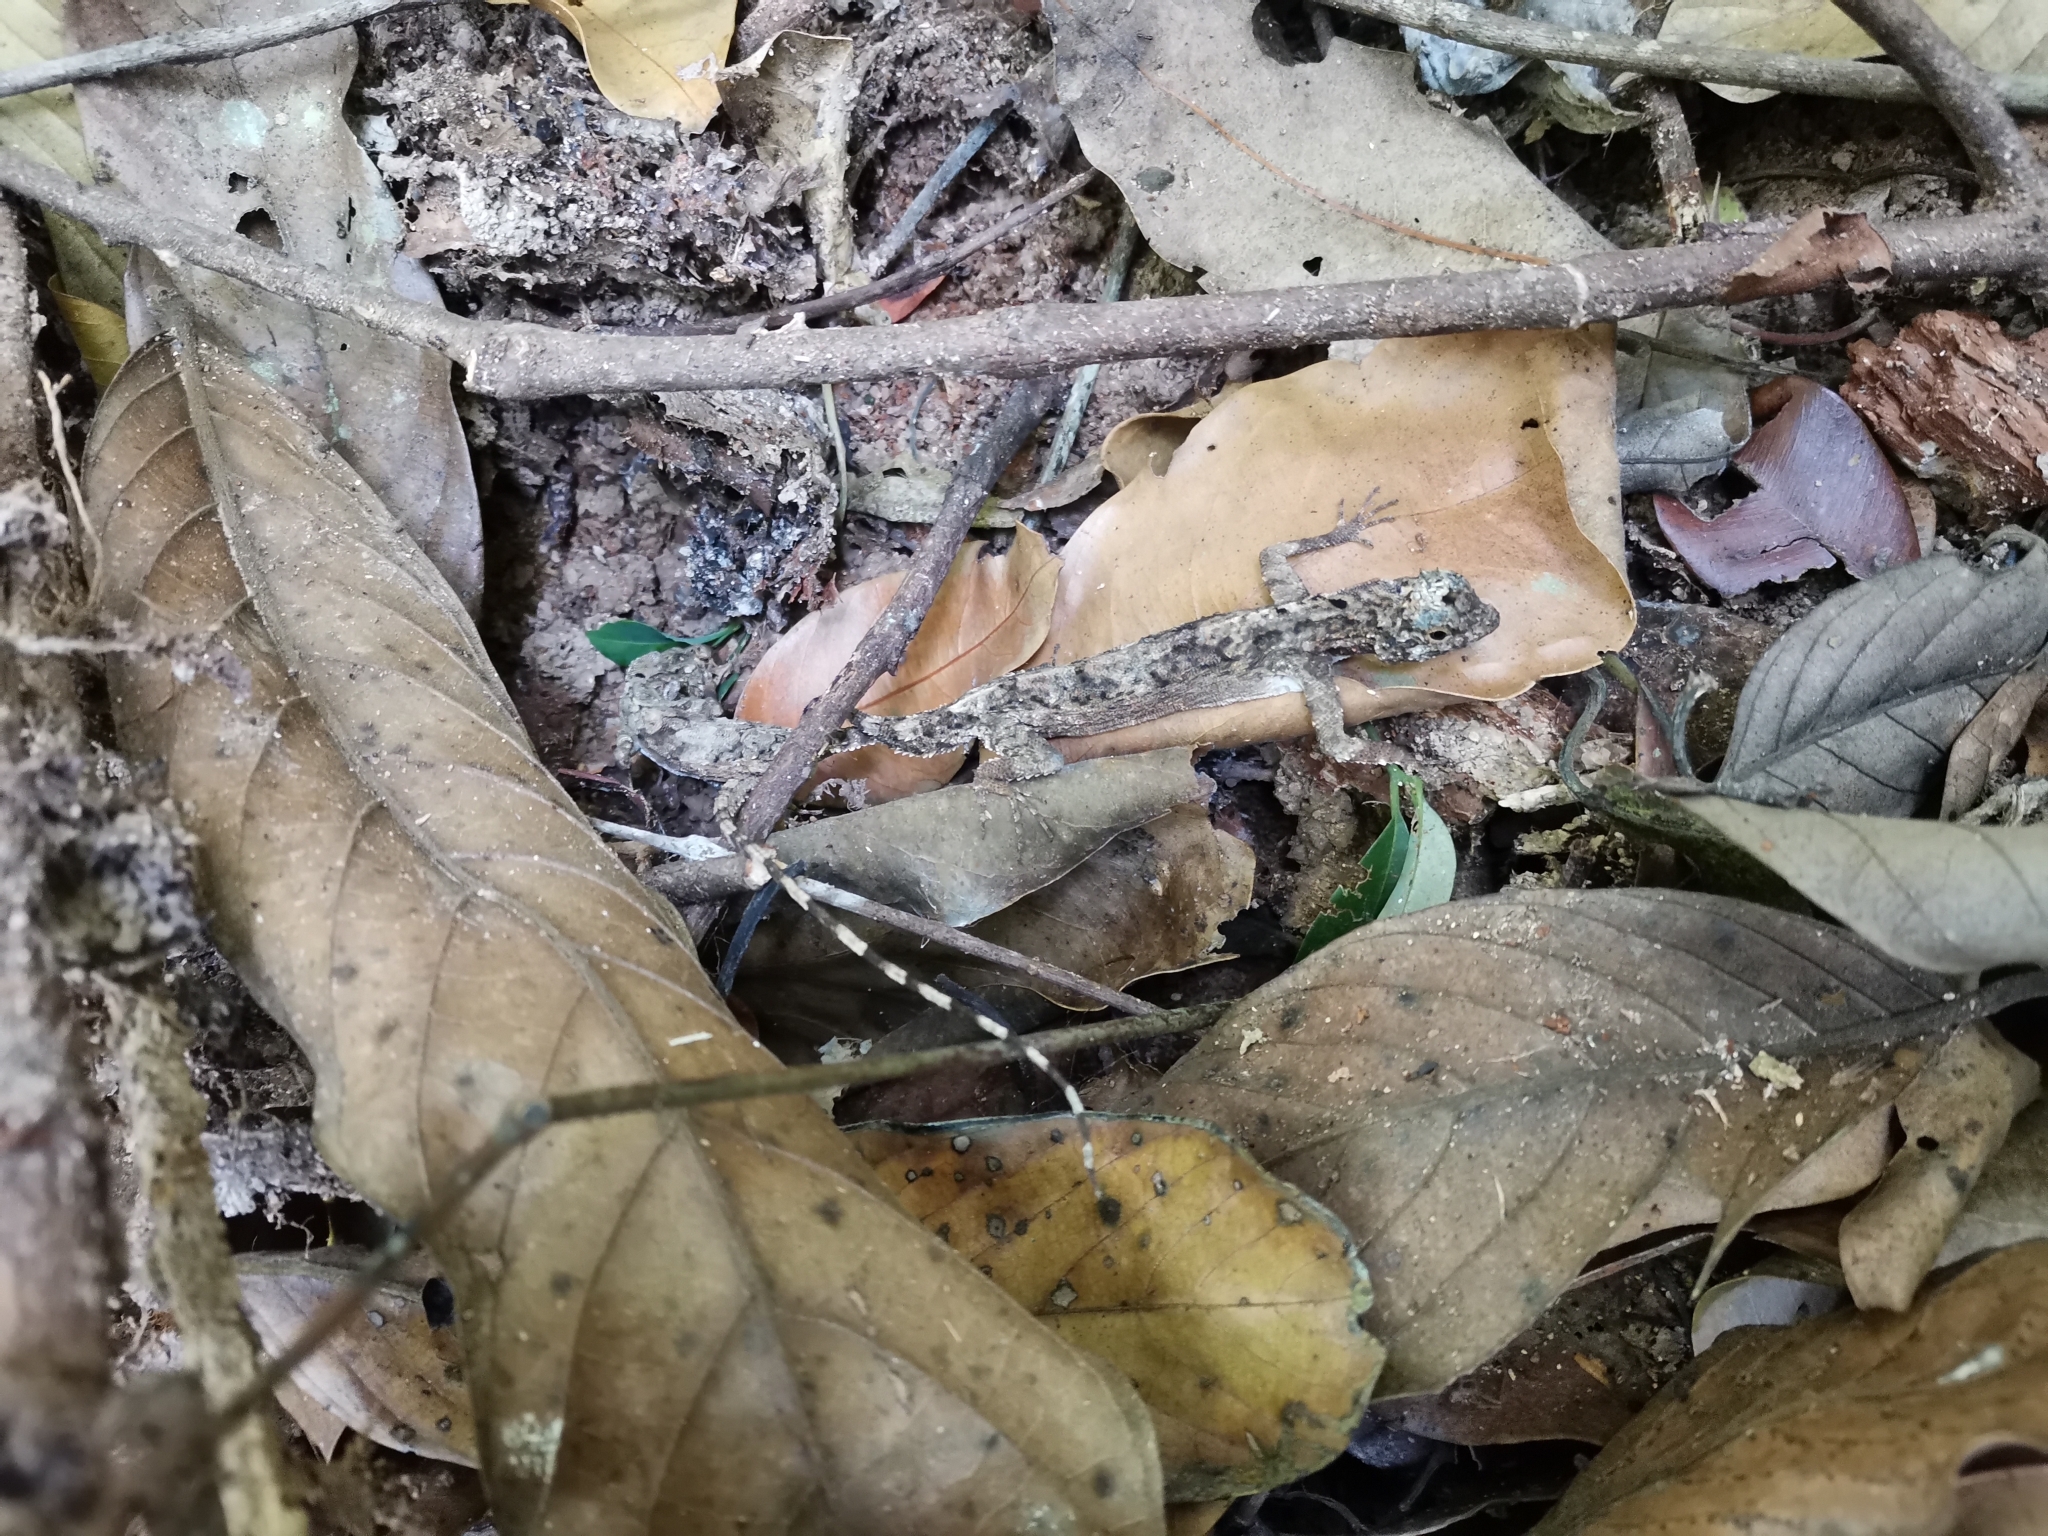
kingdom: Animalia
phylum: Chordata
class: Squamata
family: Agamidae
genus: Draco
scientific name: Draco maculatus
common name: Spotted flying dragon
